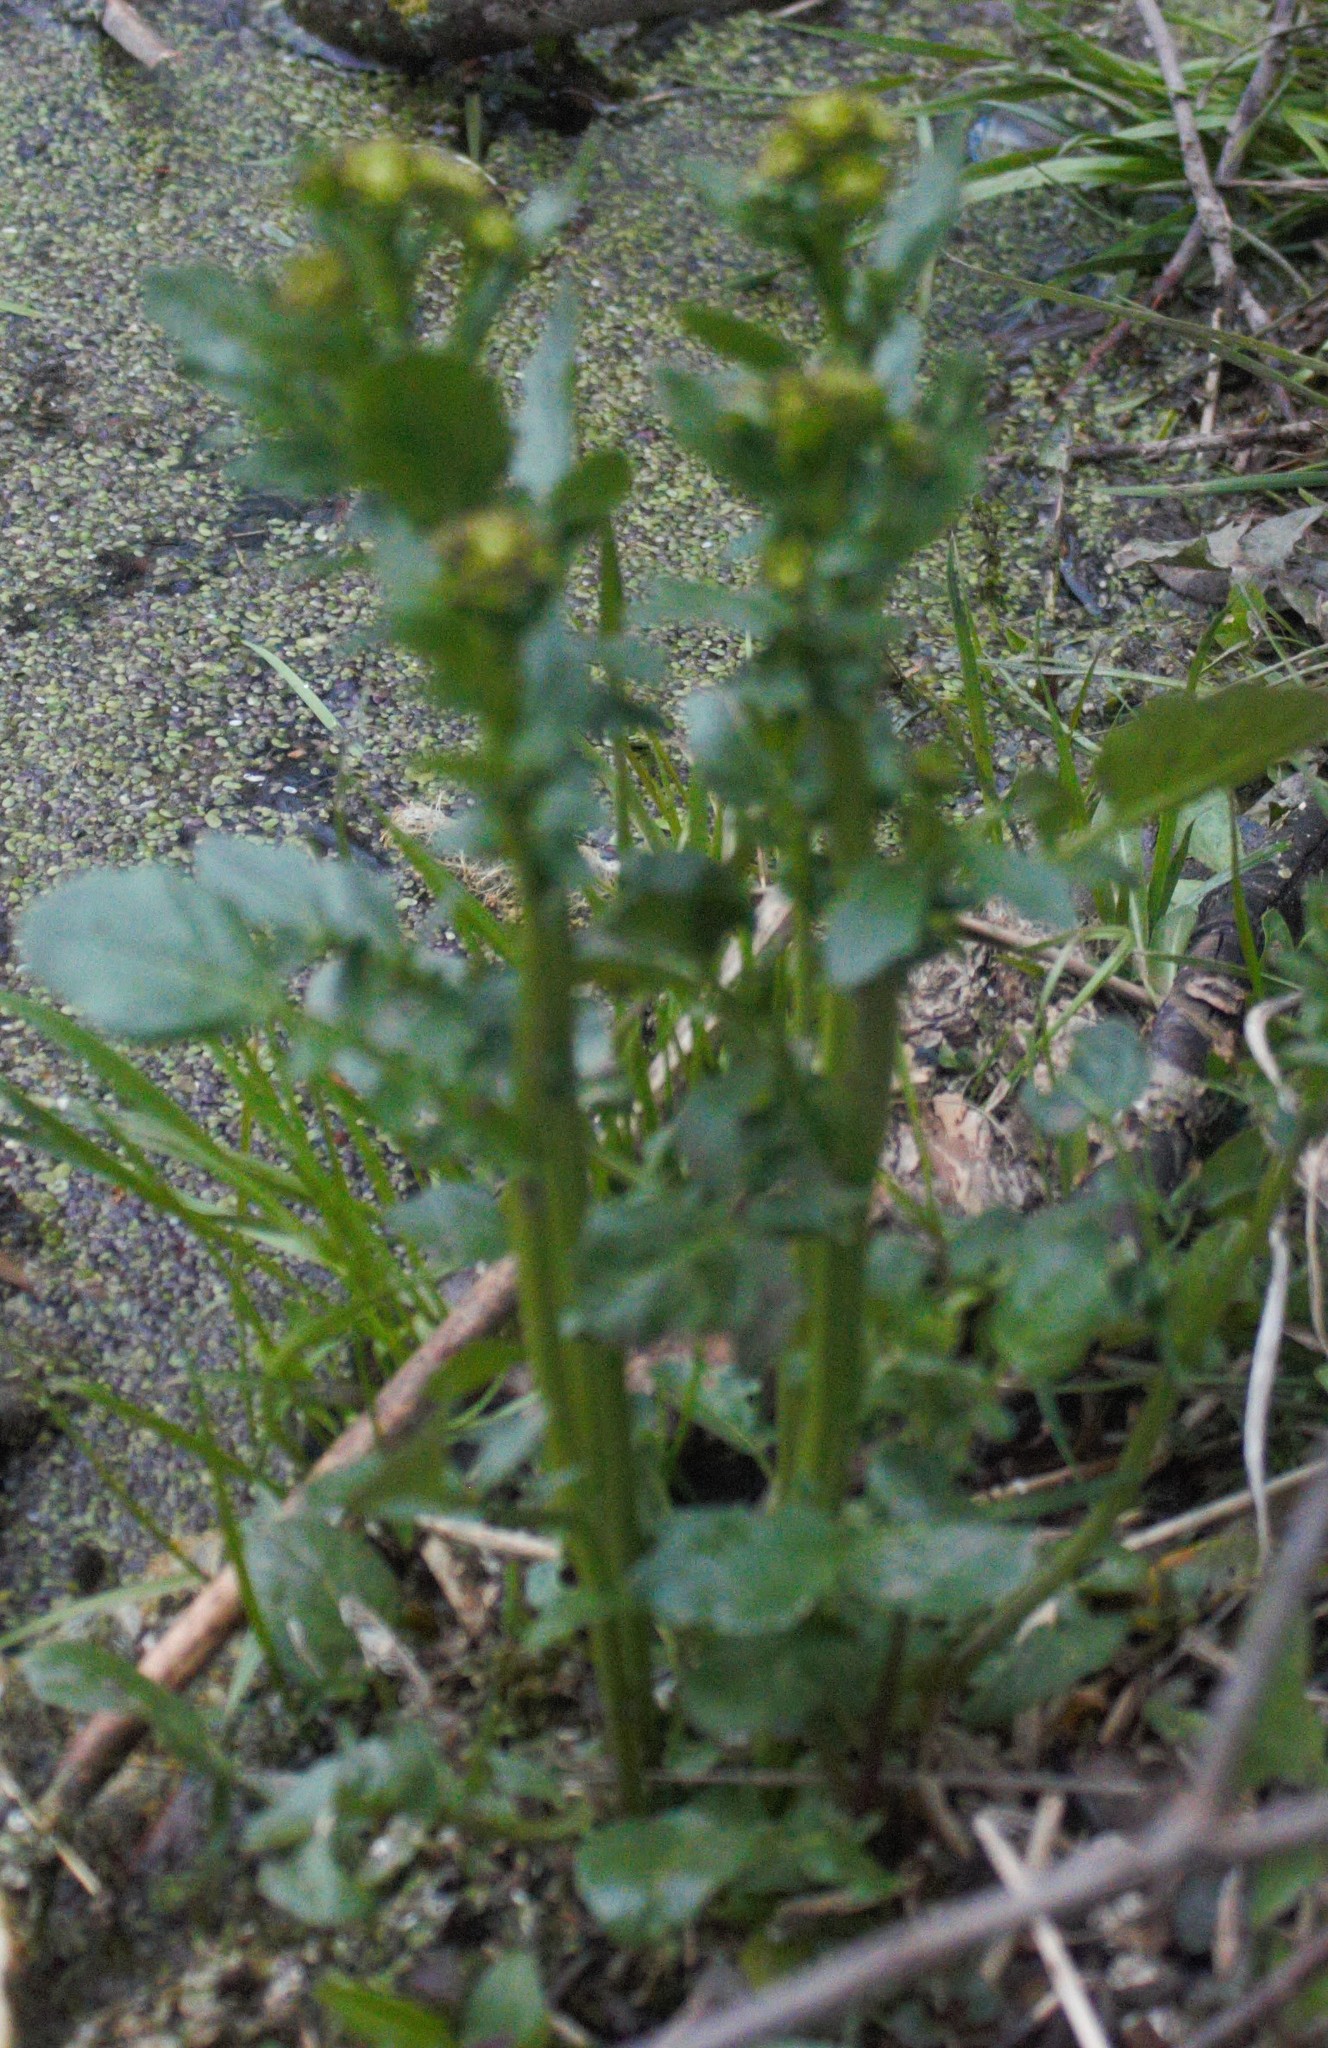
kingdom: Plantae
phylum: Tracheophyta
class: Magnoliopsida
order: Brassicales
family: Brassicaceae
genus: Barbarea
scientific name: Barbarea vulgaris
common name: Cressy-greens
